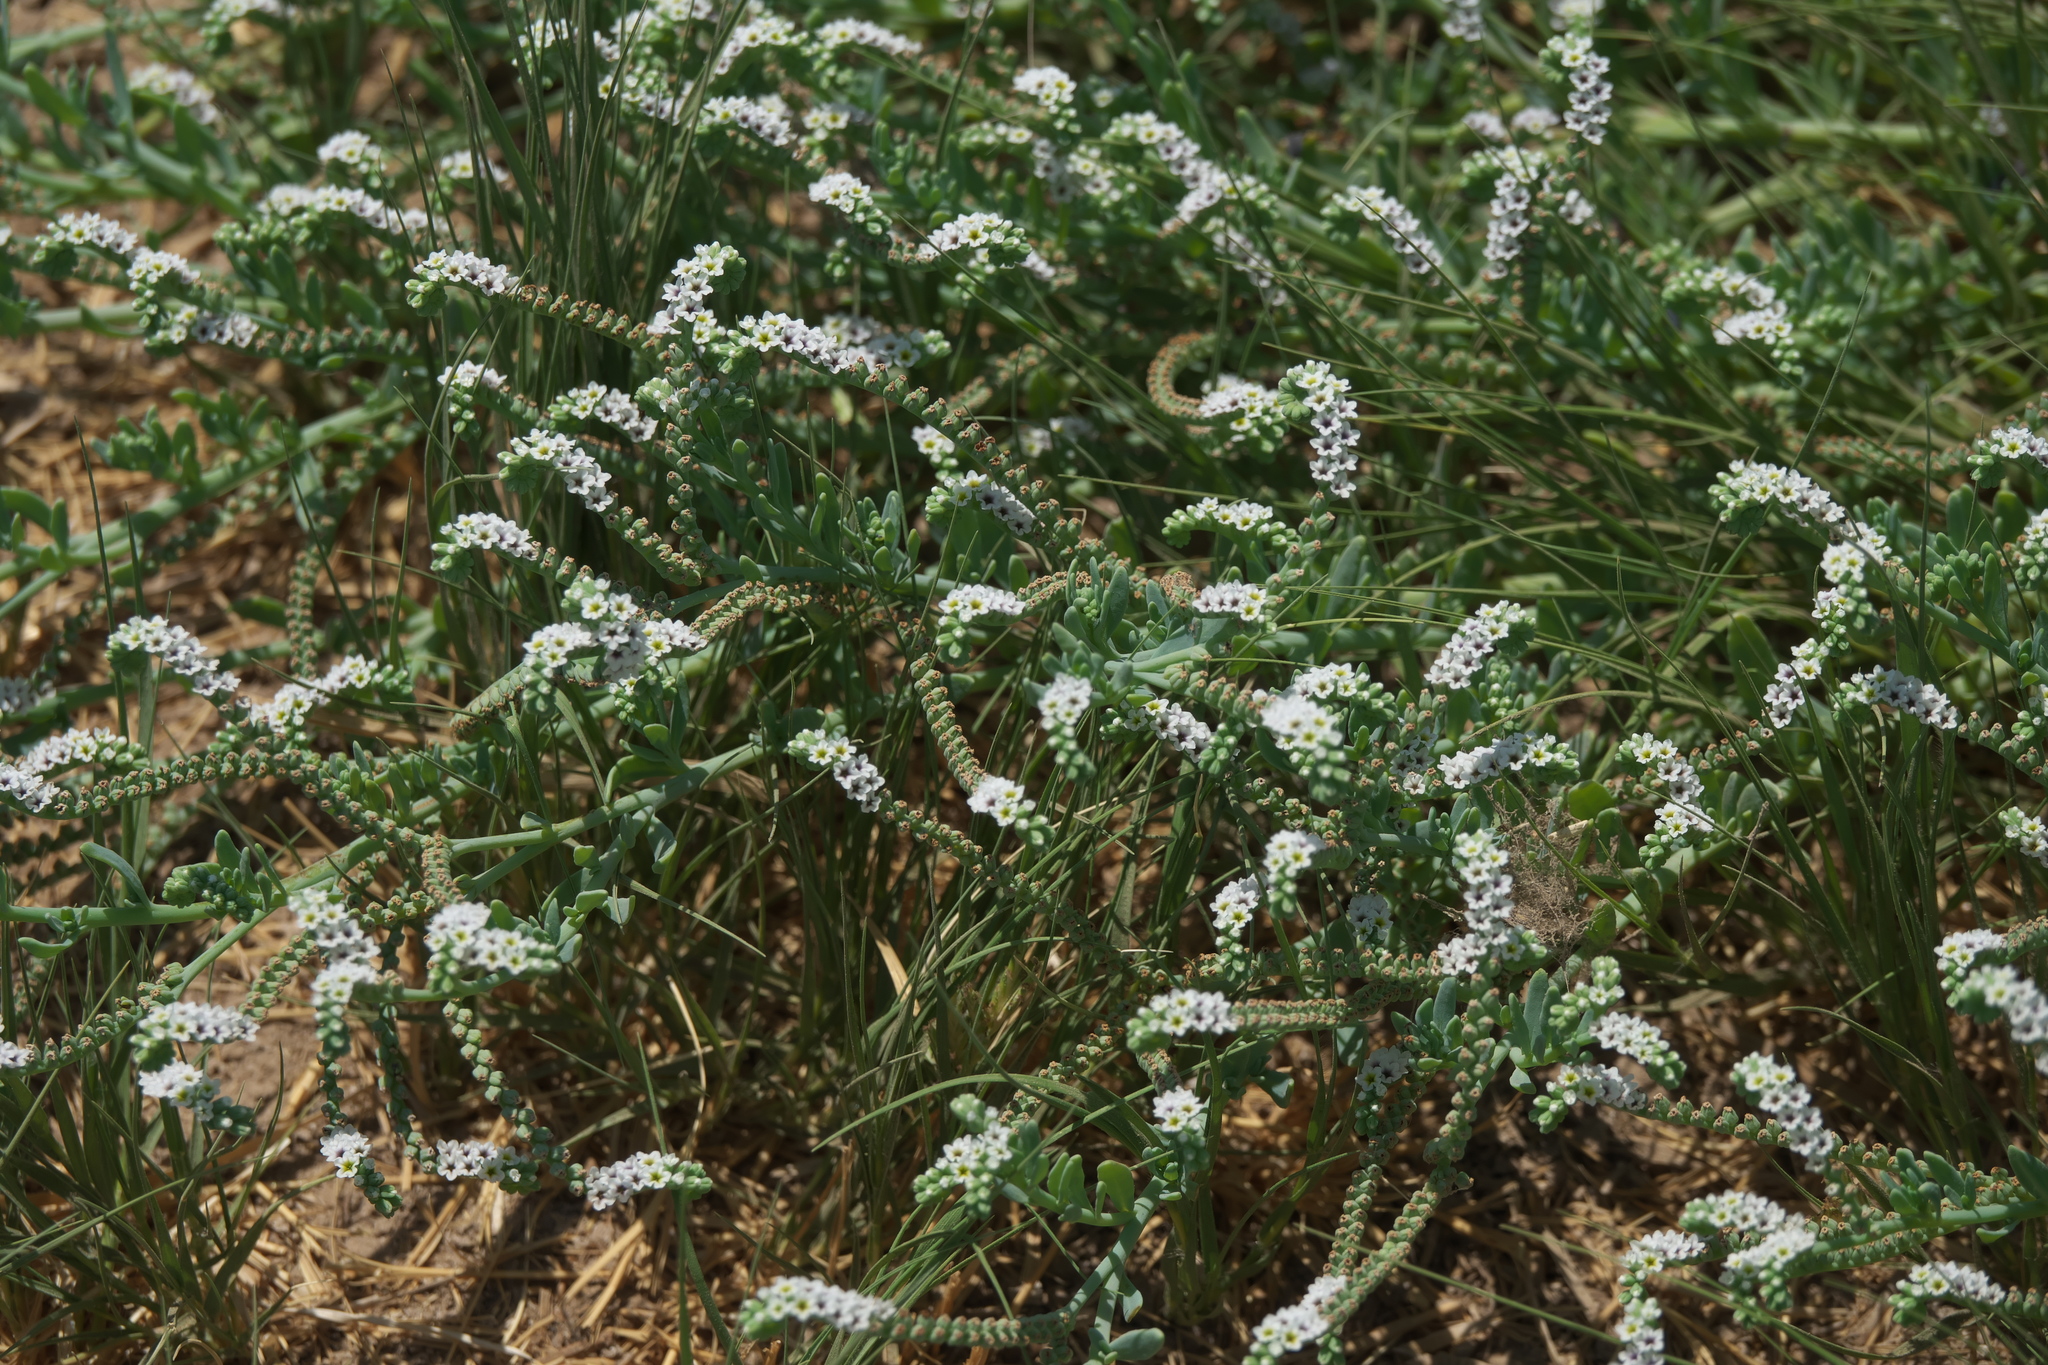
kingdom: Plantae
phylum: Tracheophyta
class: Magnoliopsida
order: Boraginales
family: Heliotropiaceae
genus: Heliotropium
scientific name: Heliotropium curassavicum
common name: Seaside heliotrope
